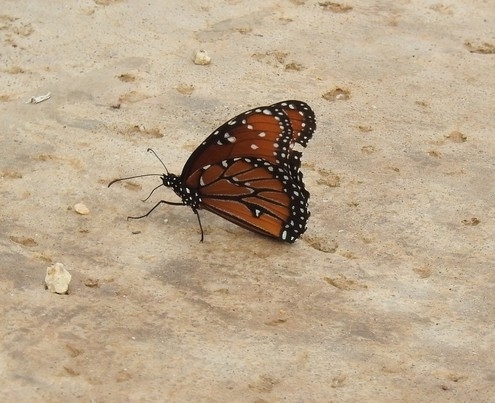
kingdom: Animalia
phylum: Arthropoda
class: Insecta
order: Lepidoptera
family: Nymphalidae
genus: Danaus
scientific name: Danaus gilippus
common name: Queen
